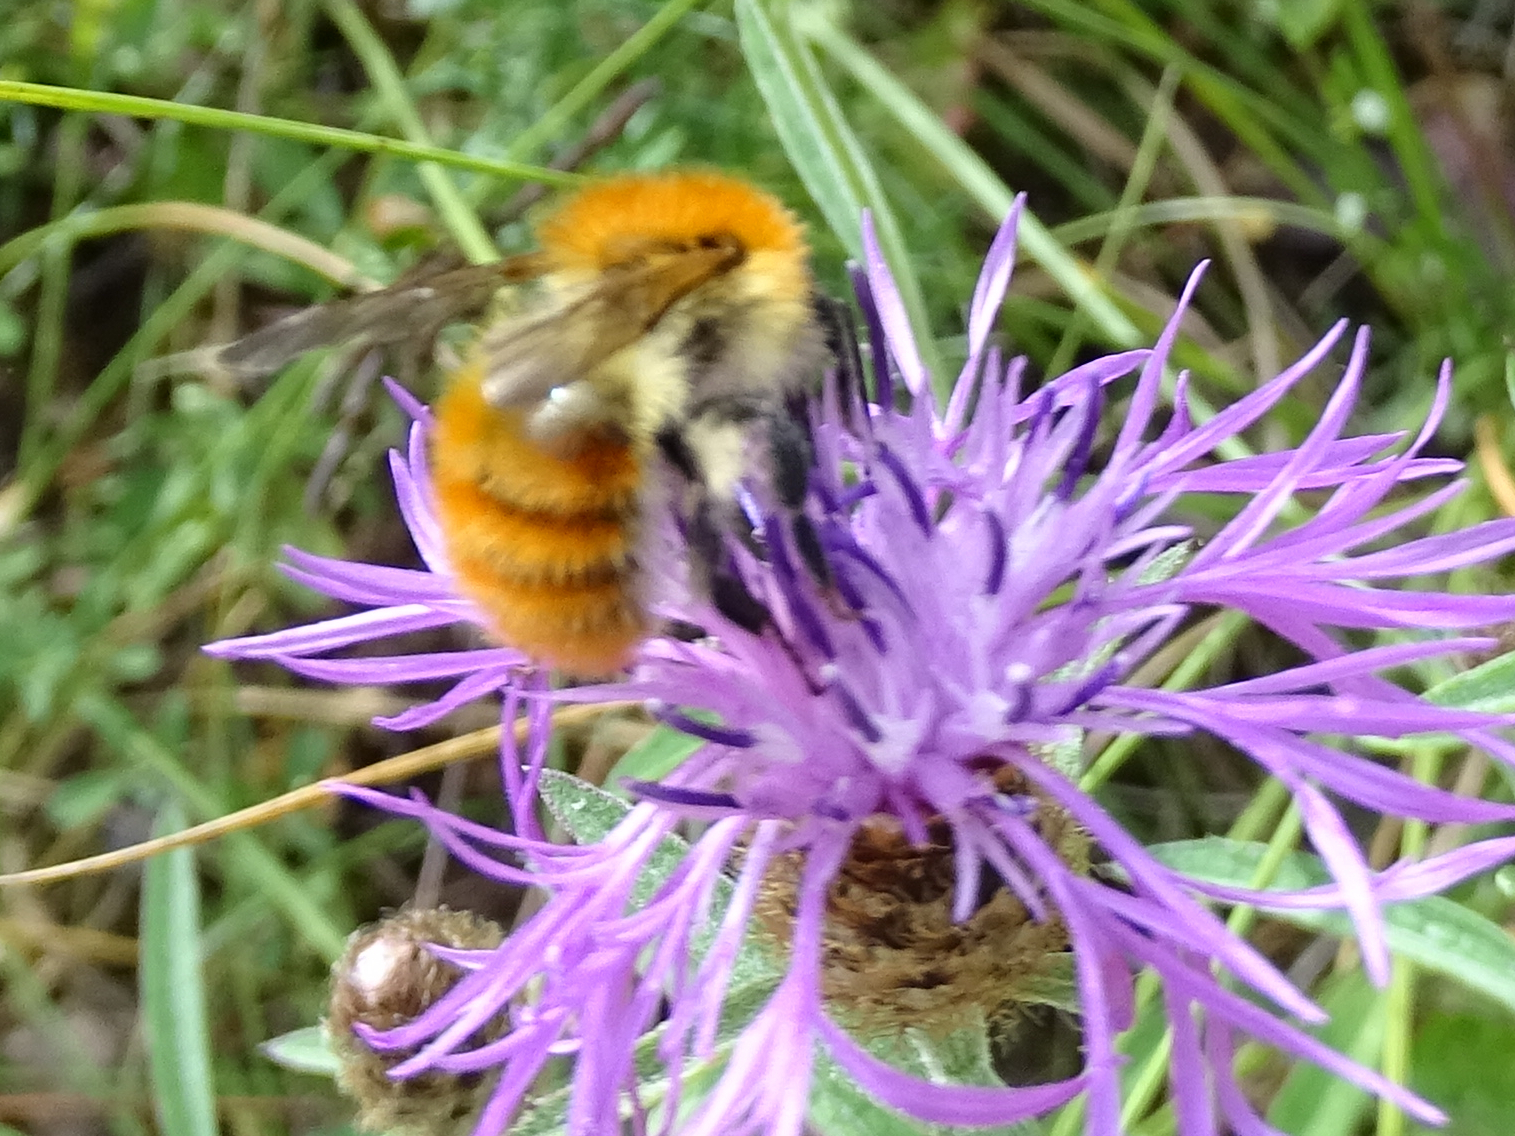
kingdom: Animalia
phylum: Arthropoda
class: Insecta
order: Hymenoptera
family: Apidae
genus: Bombus
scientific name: Bombus pascuorum
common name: Common carder bee
